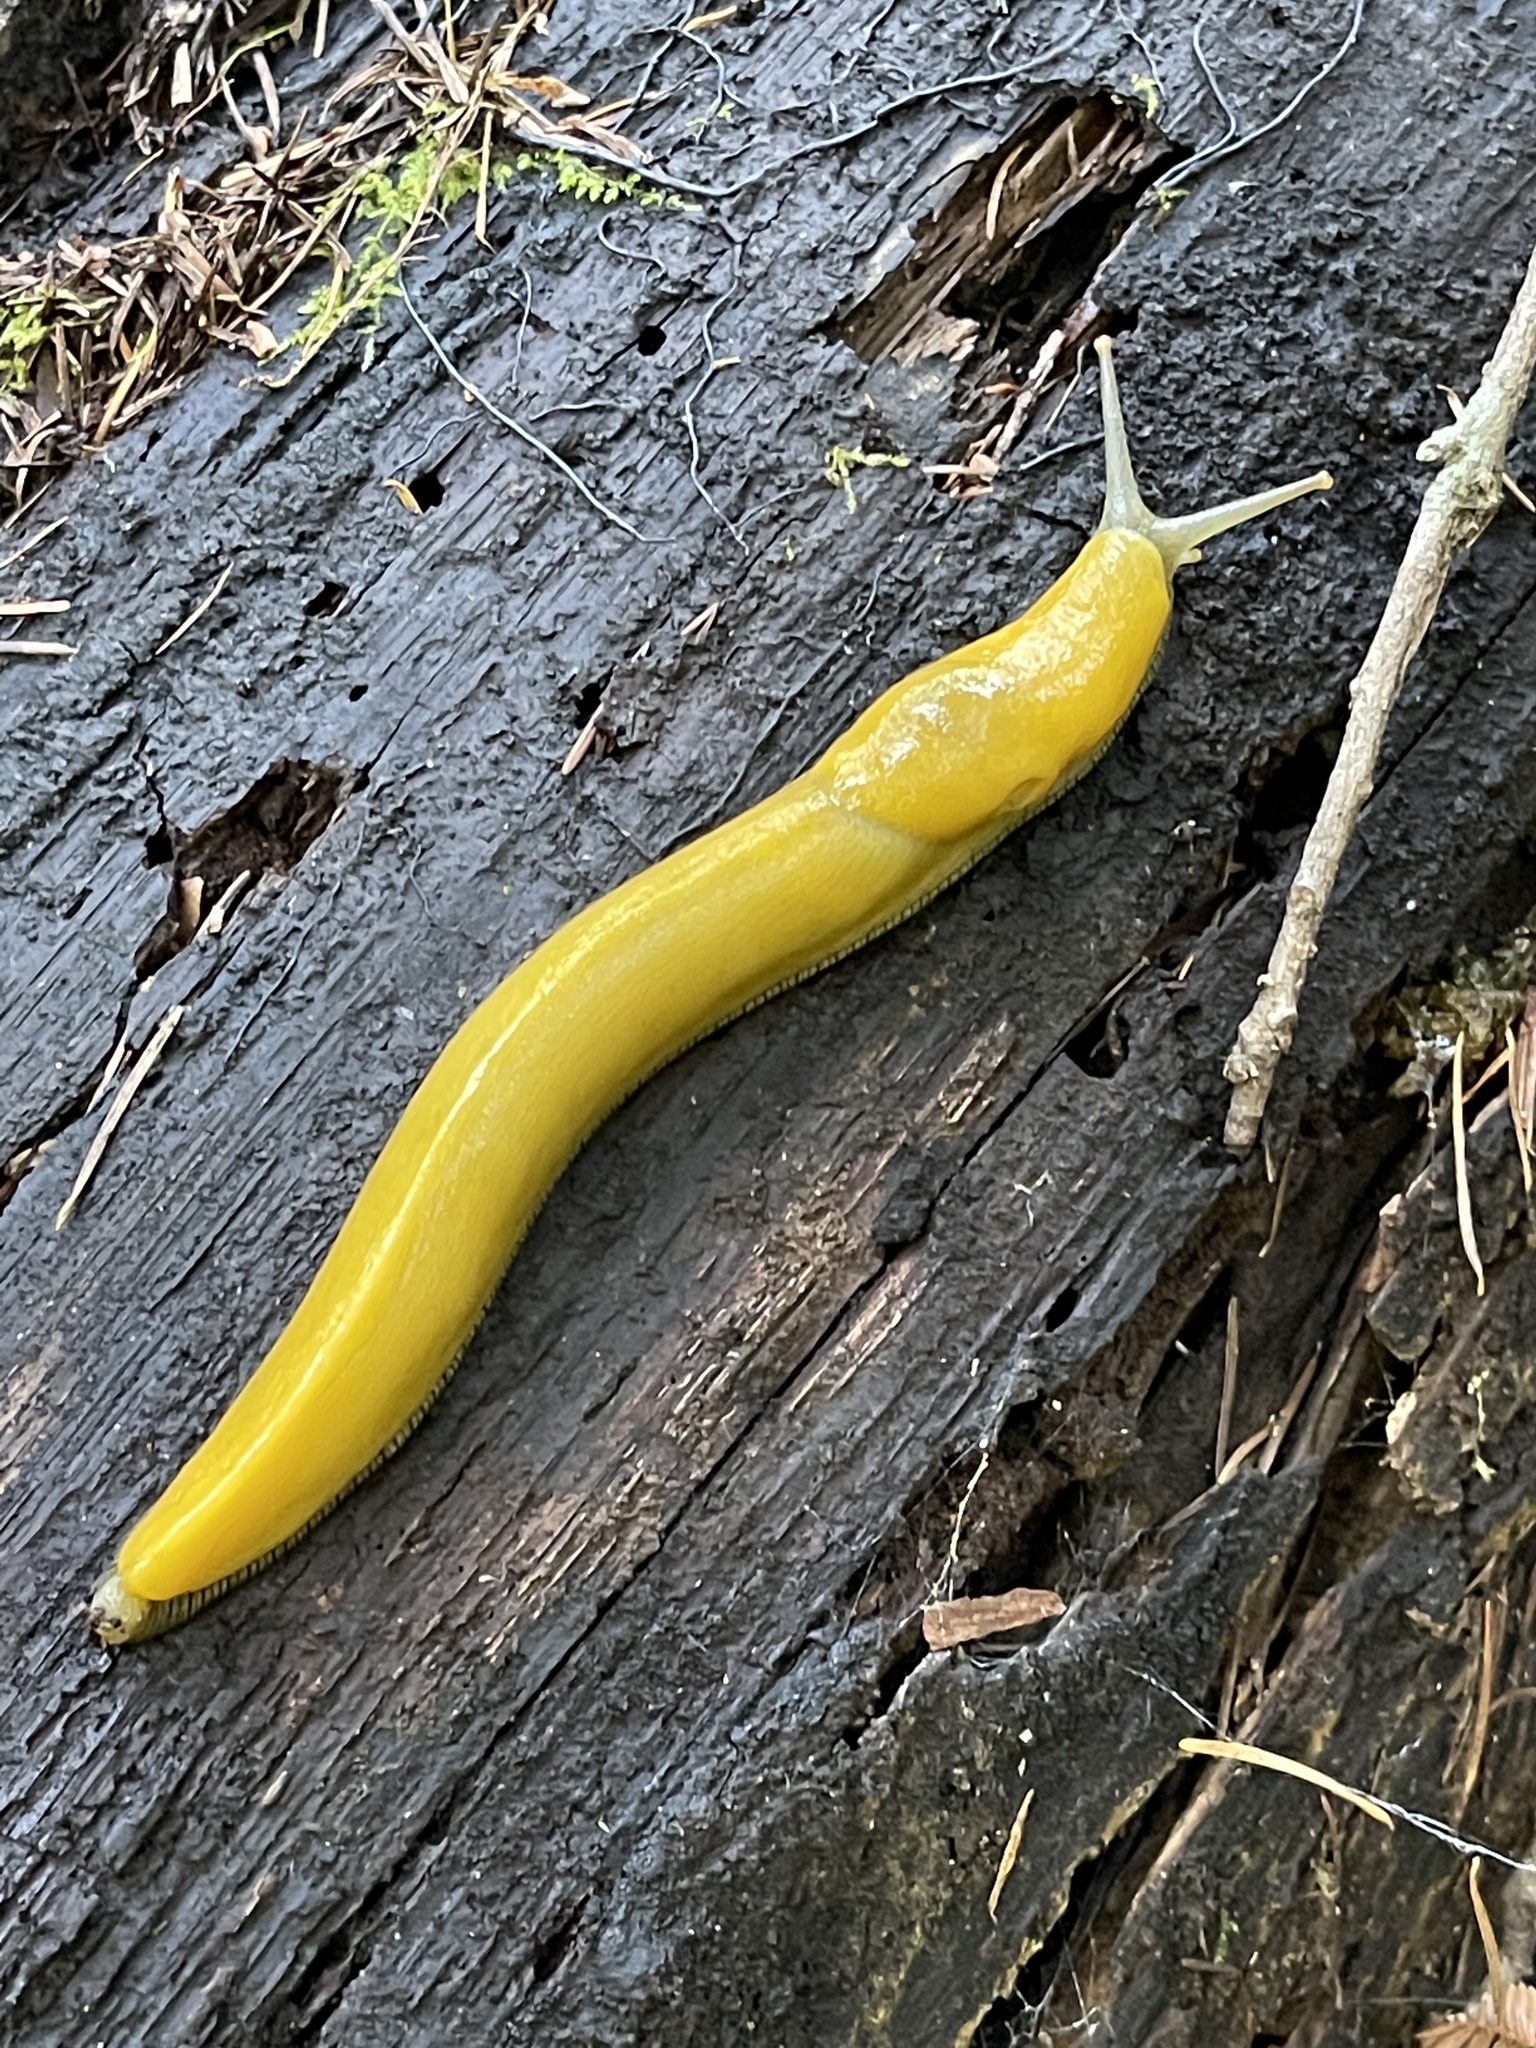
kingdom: Animalia
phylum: Mollusca
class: Gastropoda
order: Stylommatophora
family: Ariolimacidae
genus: Ariolimax
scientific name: Ariolimax dolichophallus
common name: Slender banana slug
